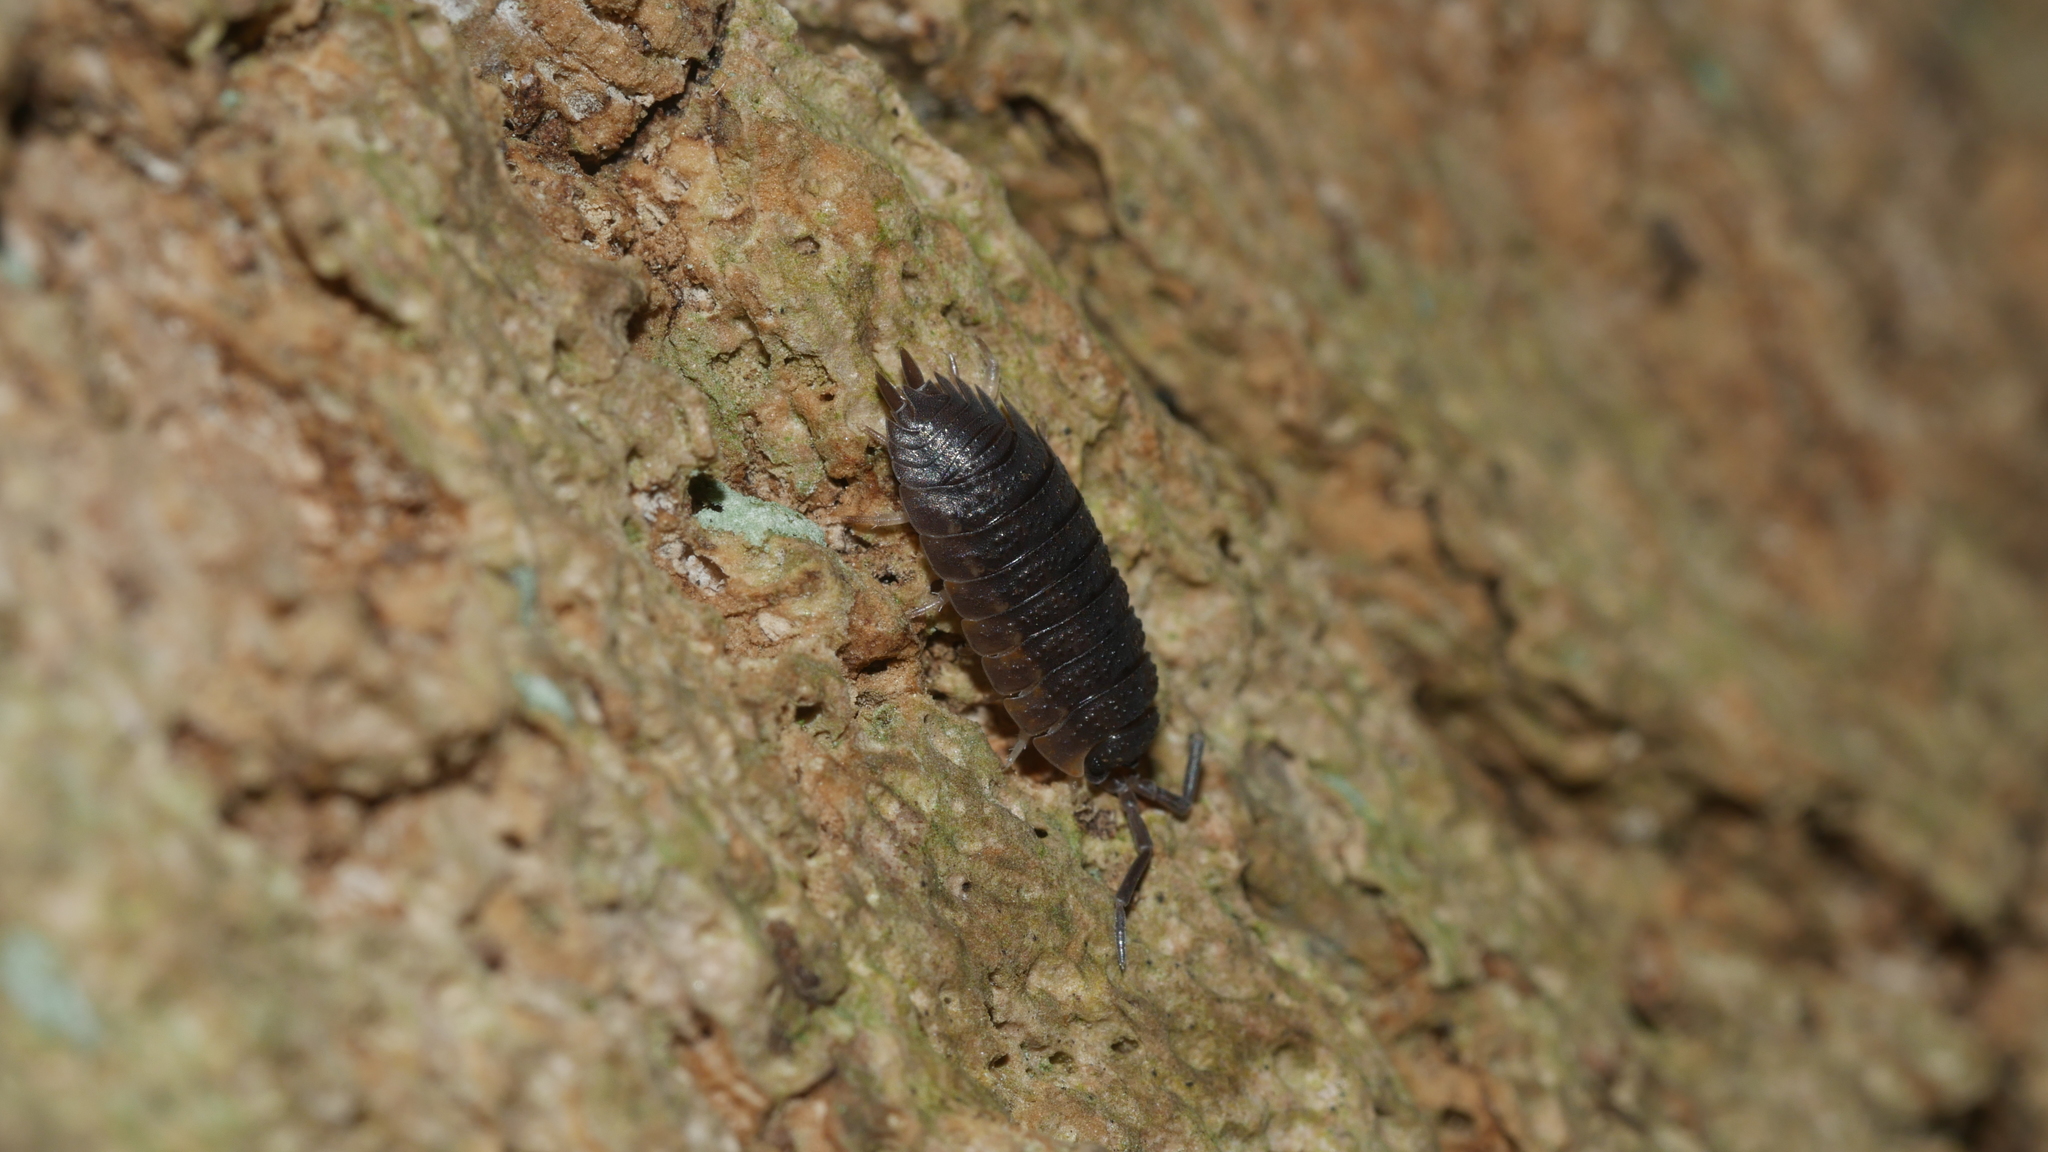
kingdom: Animalia
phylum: Arthropoda
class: Malacostraca
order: Isopoda
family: Porcellionidae
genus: Porcellio
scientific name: Porcellio scaber
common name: Common rough woodlouse
